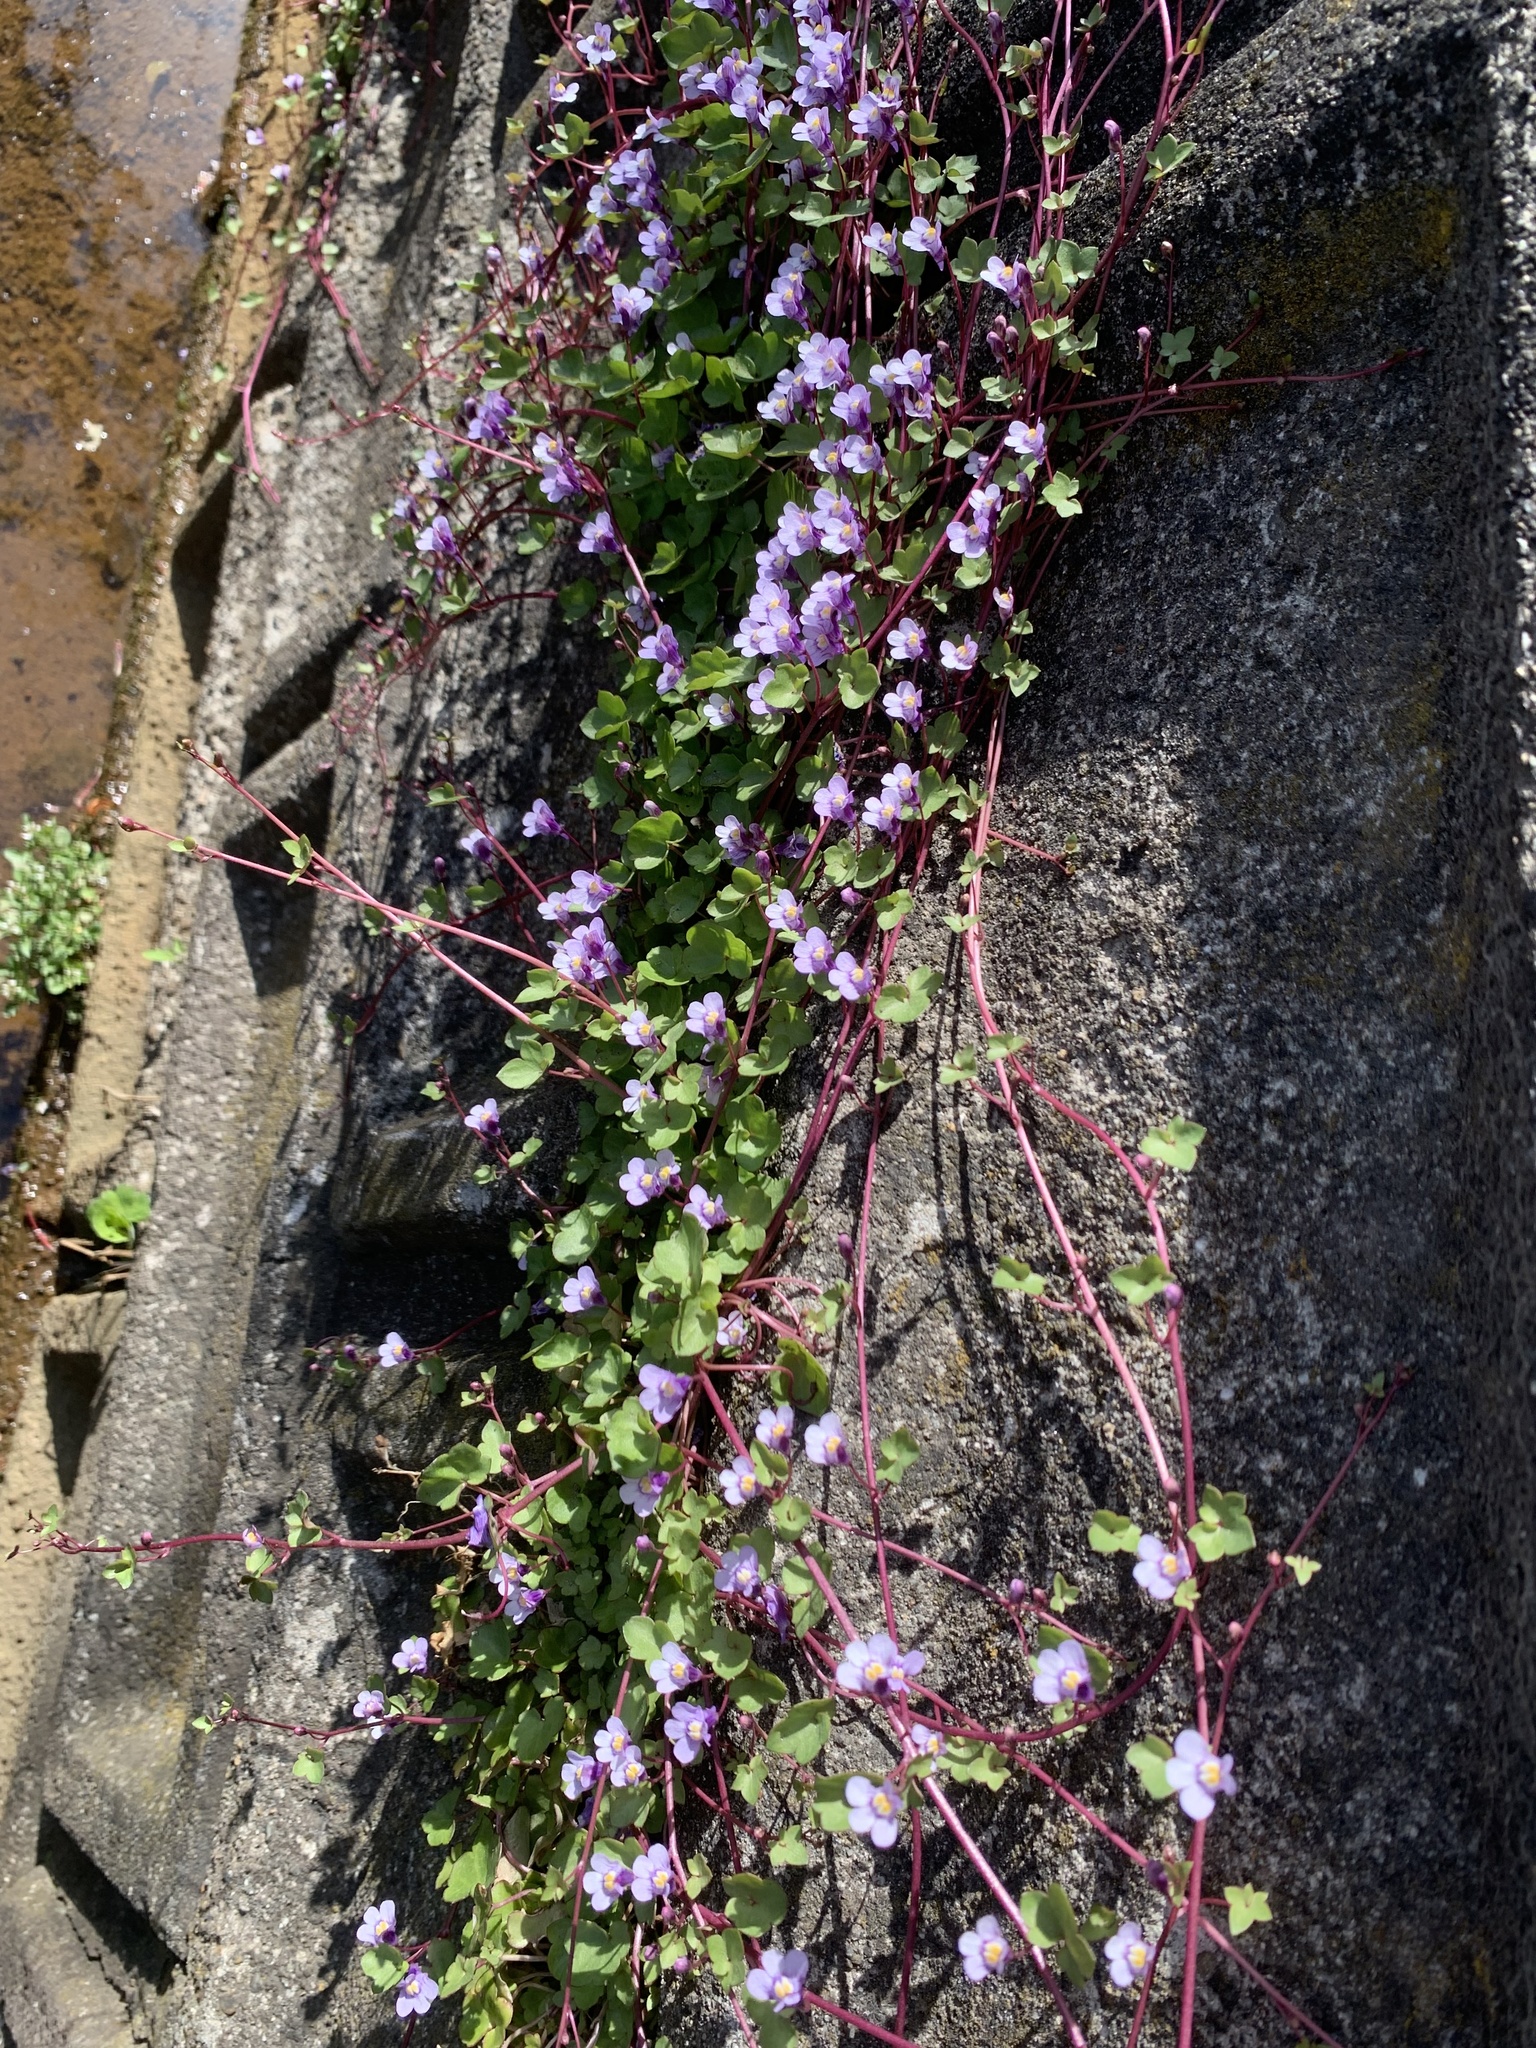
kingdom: Plantae
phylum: Tracheophyta
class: Magnoliopsida
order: Lamiales
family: Plantaginaceae
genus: Cymbalaria
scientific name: Cymbalaria muralis
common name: Ivy-leaved toadflax
